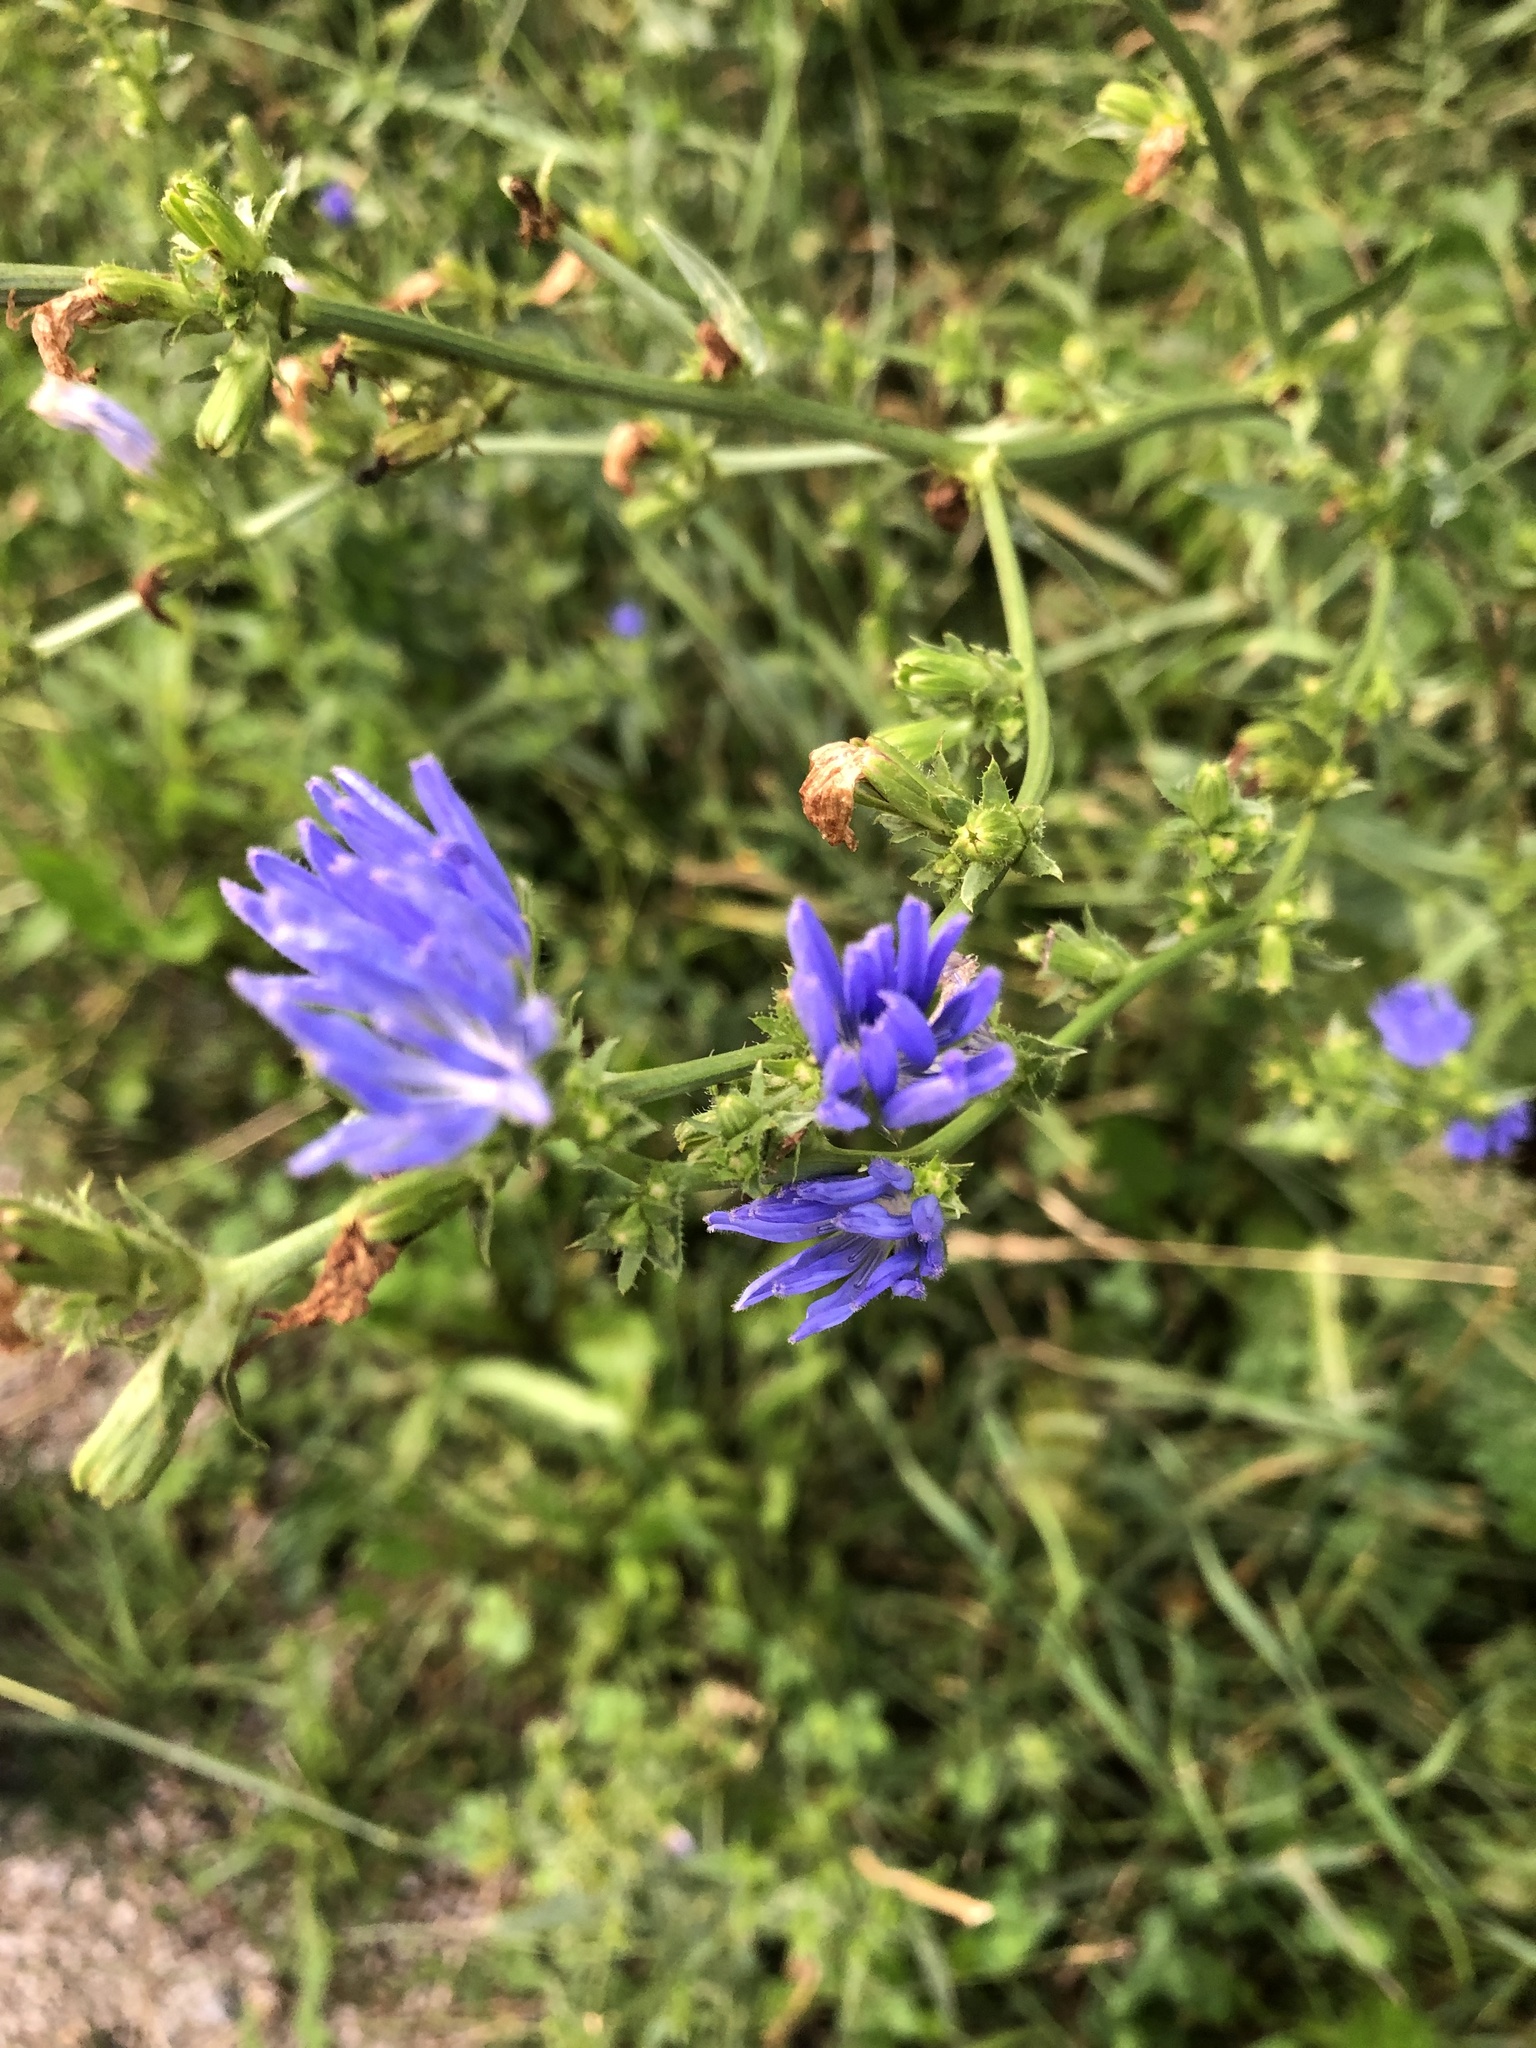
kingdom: Plantae
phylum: Tracheophyta
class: Magnoliopsida
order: Asterales
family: Asteraceae
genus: Cichorium
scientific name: Cichorium intybus
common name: Chicory
